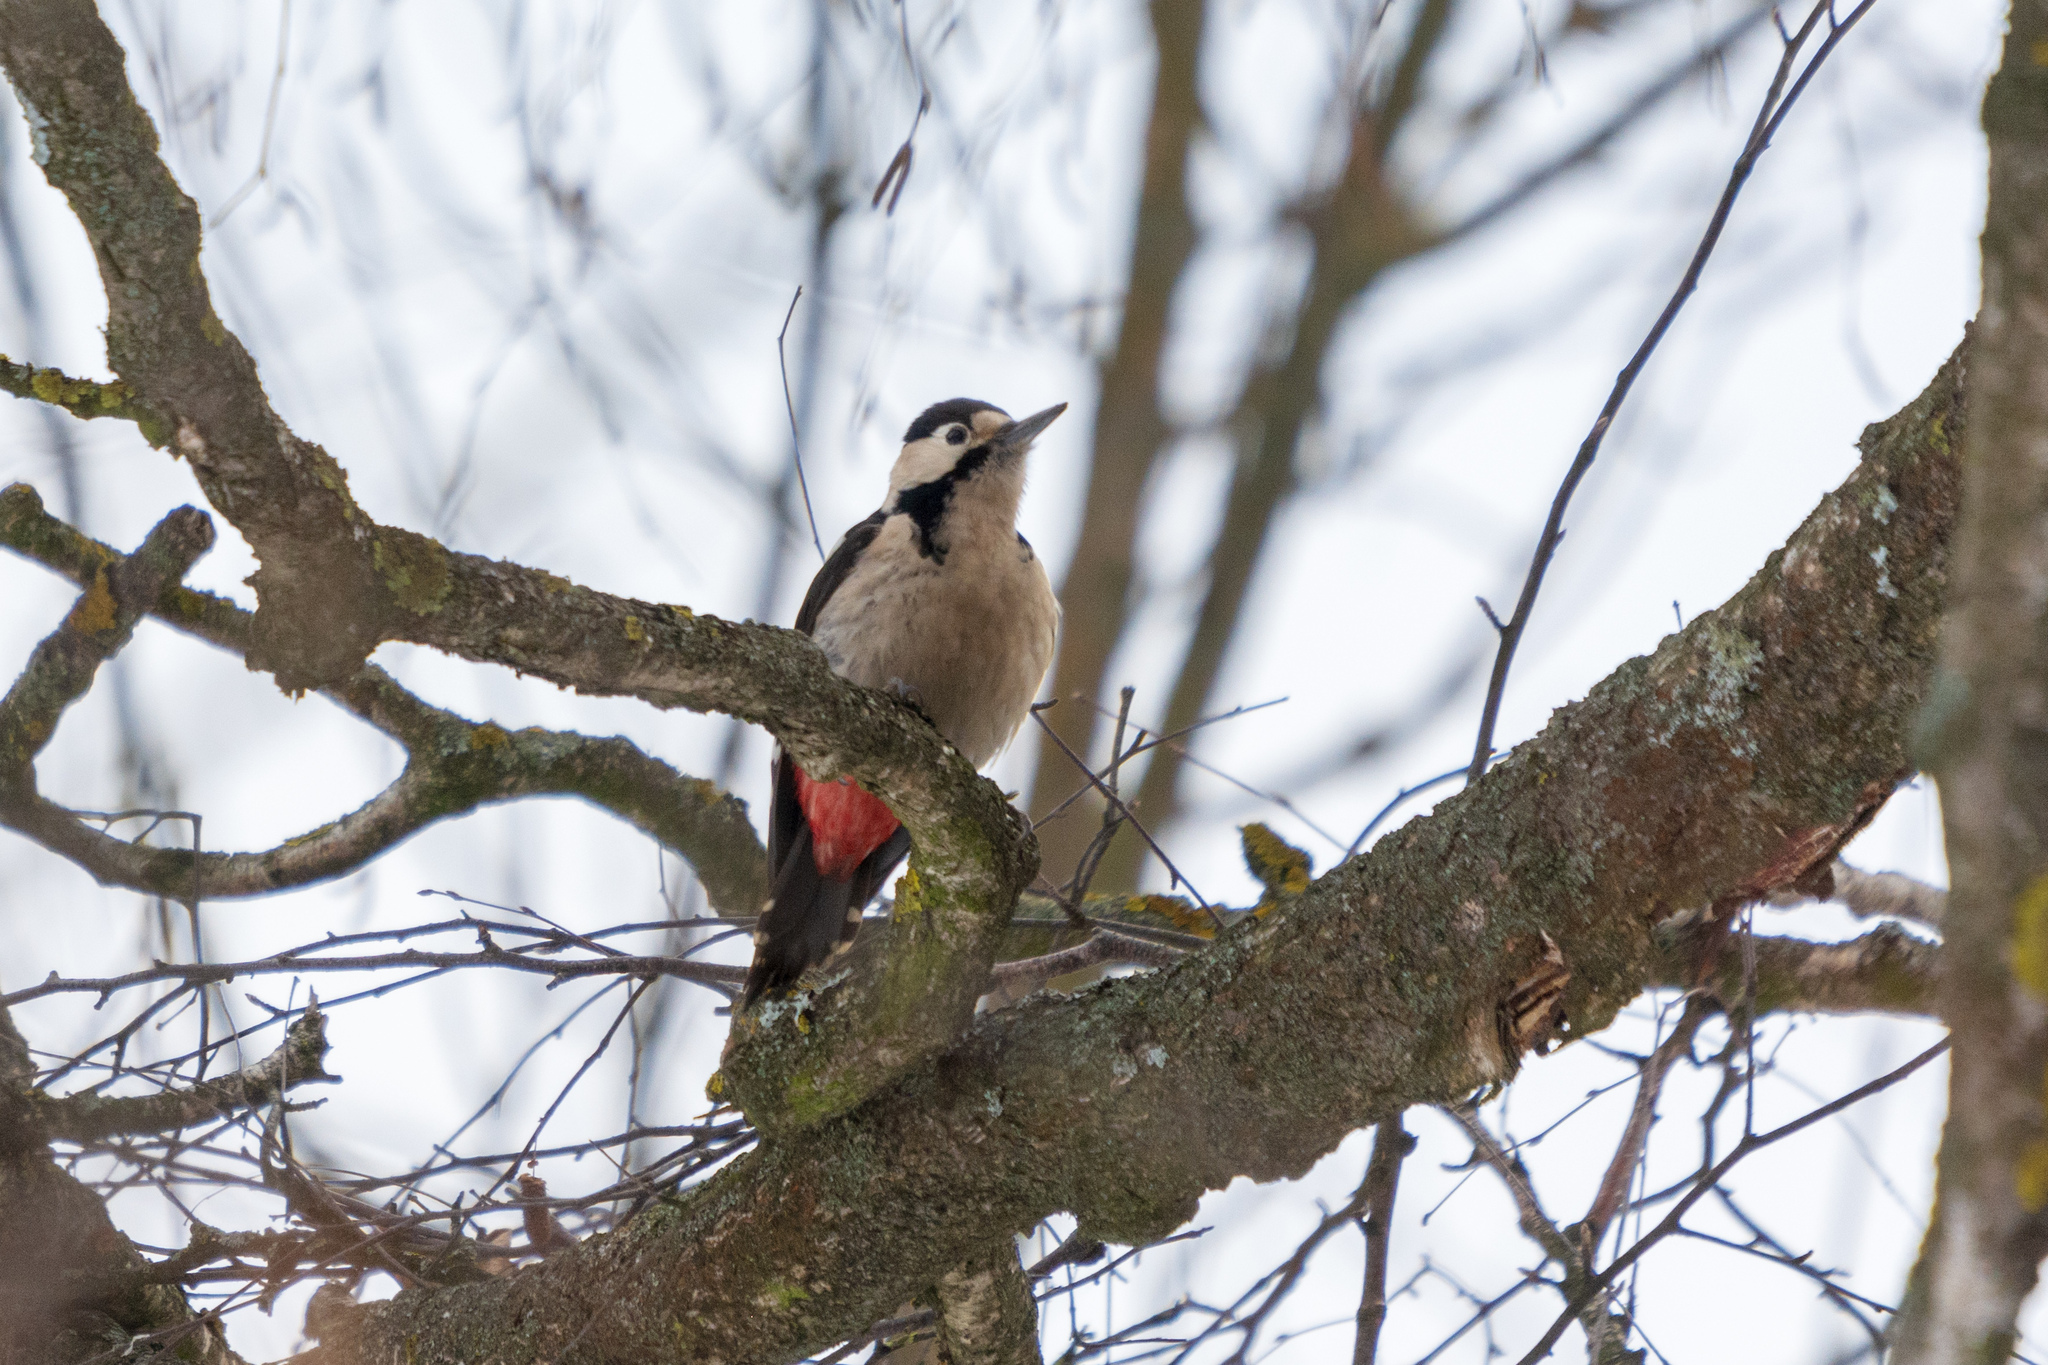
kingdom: Animalia
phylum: Chordata
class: Aves
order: Piciformes
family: Picidae
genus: Dendrocopos
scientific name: Dendrocopos syriacus
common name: Syrian woodpecker
